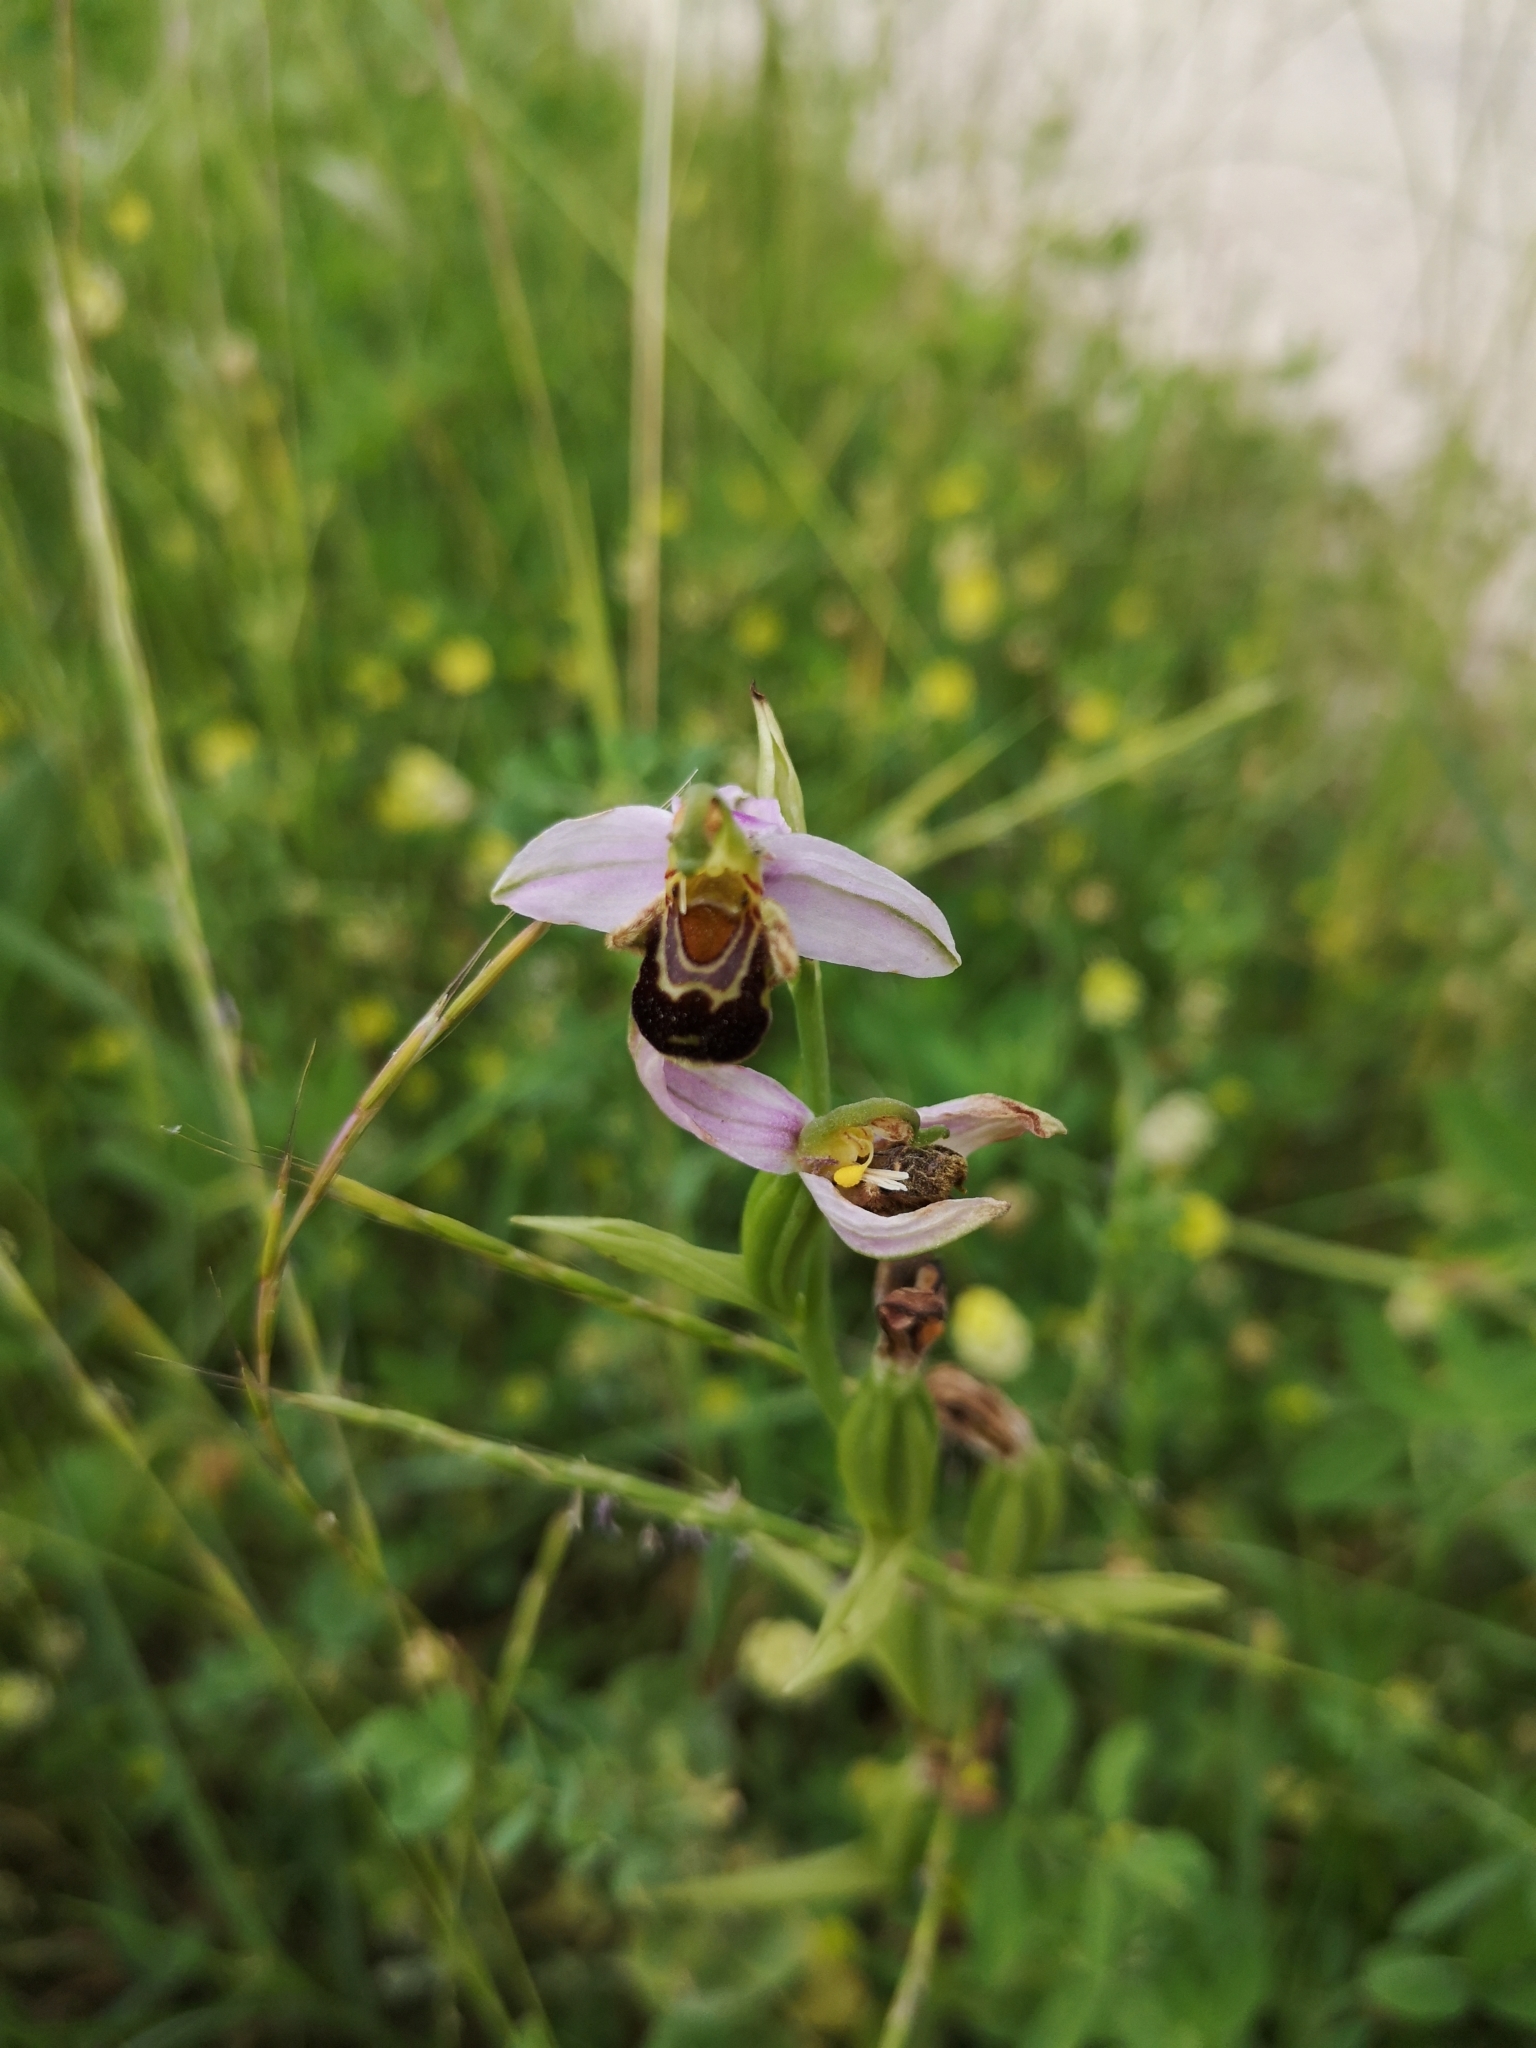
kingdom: Plantae
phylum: Tracheophyta
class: Liliopsida
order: Asparagales
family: Orchidaceae
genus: Ophrys
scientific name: Ophrys apifera
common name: Bee orchid
